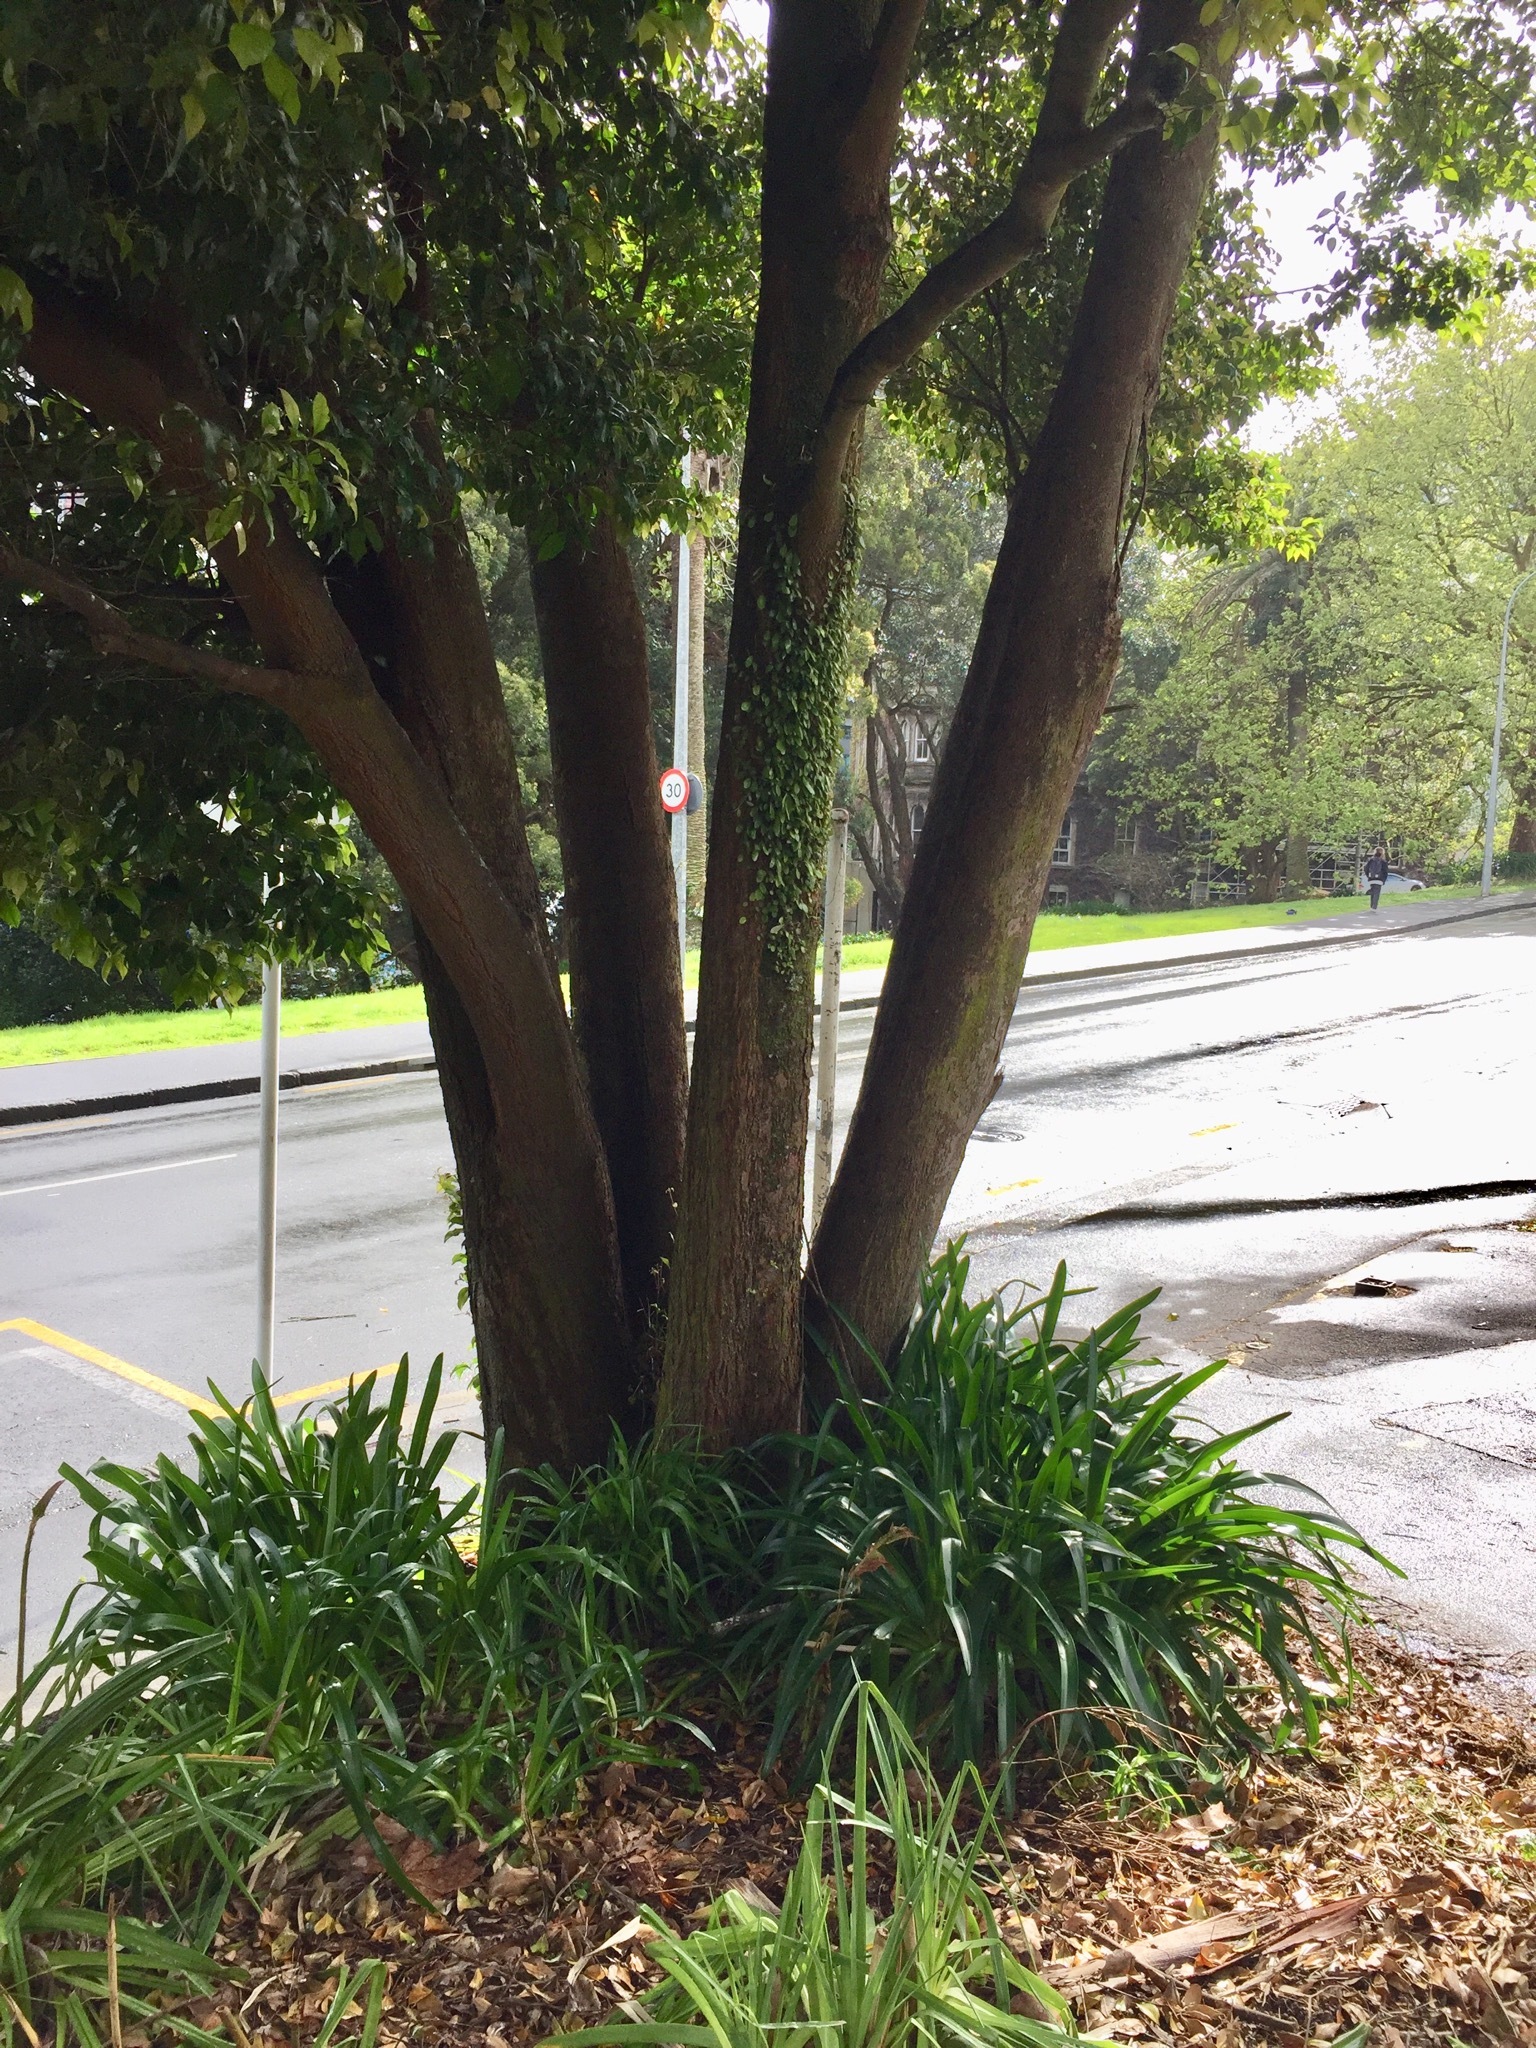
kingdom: Animalia
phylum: Arthropoda
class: Insecta
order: Hemiptera
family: Aphididae
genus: Idiopterus
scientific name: Idiopterus nephrelepidis
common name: Fern aphid
